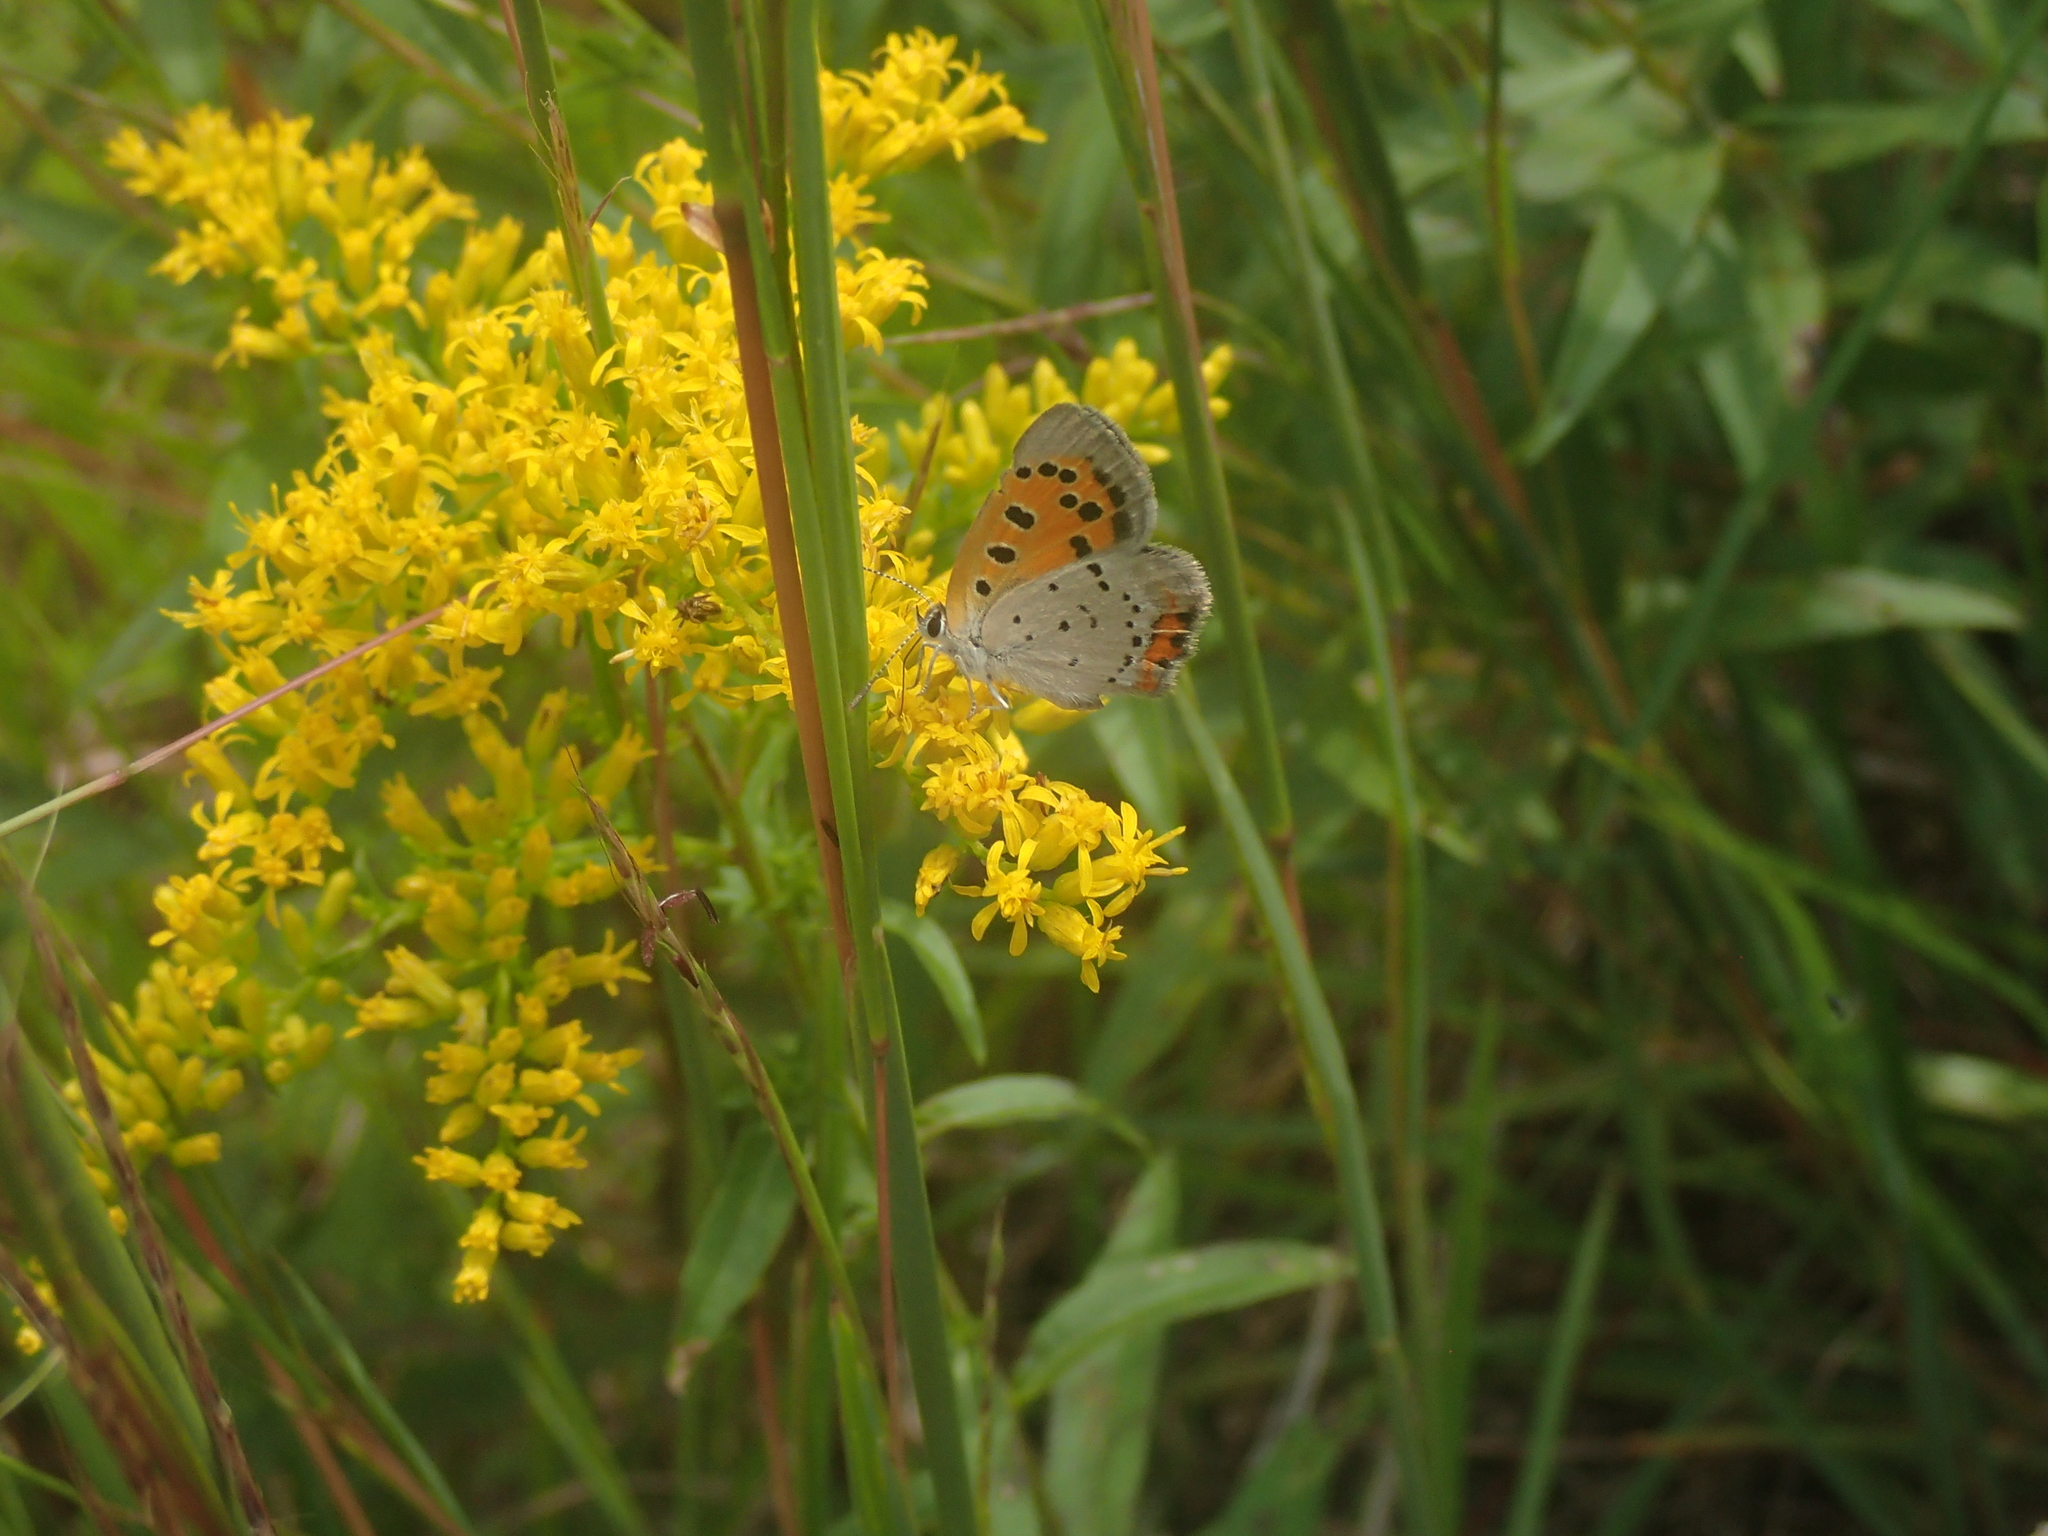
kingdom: Animalia
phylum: Arthropoda
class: Insecta
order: Lepidoptera
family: Lycaenidae
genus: Lycaena
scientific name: Lycaena hypophlaeas
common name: American copper
